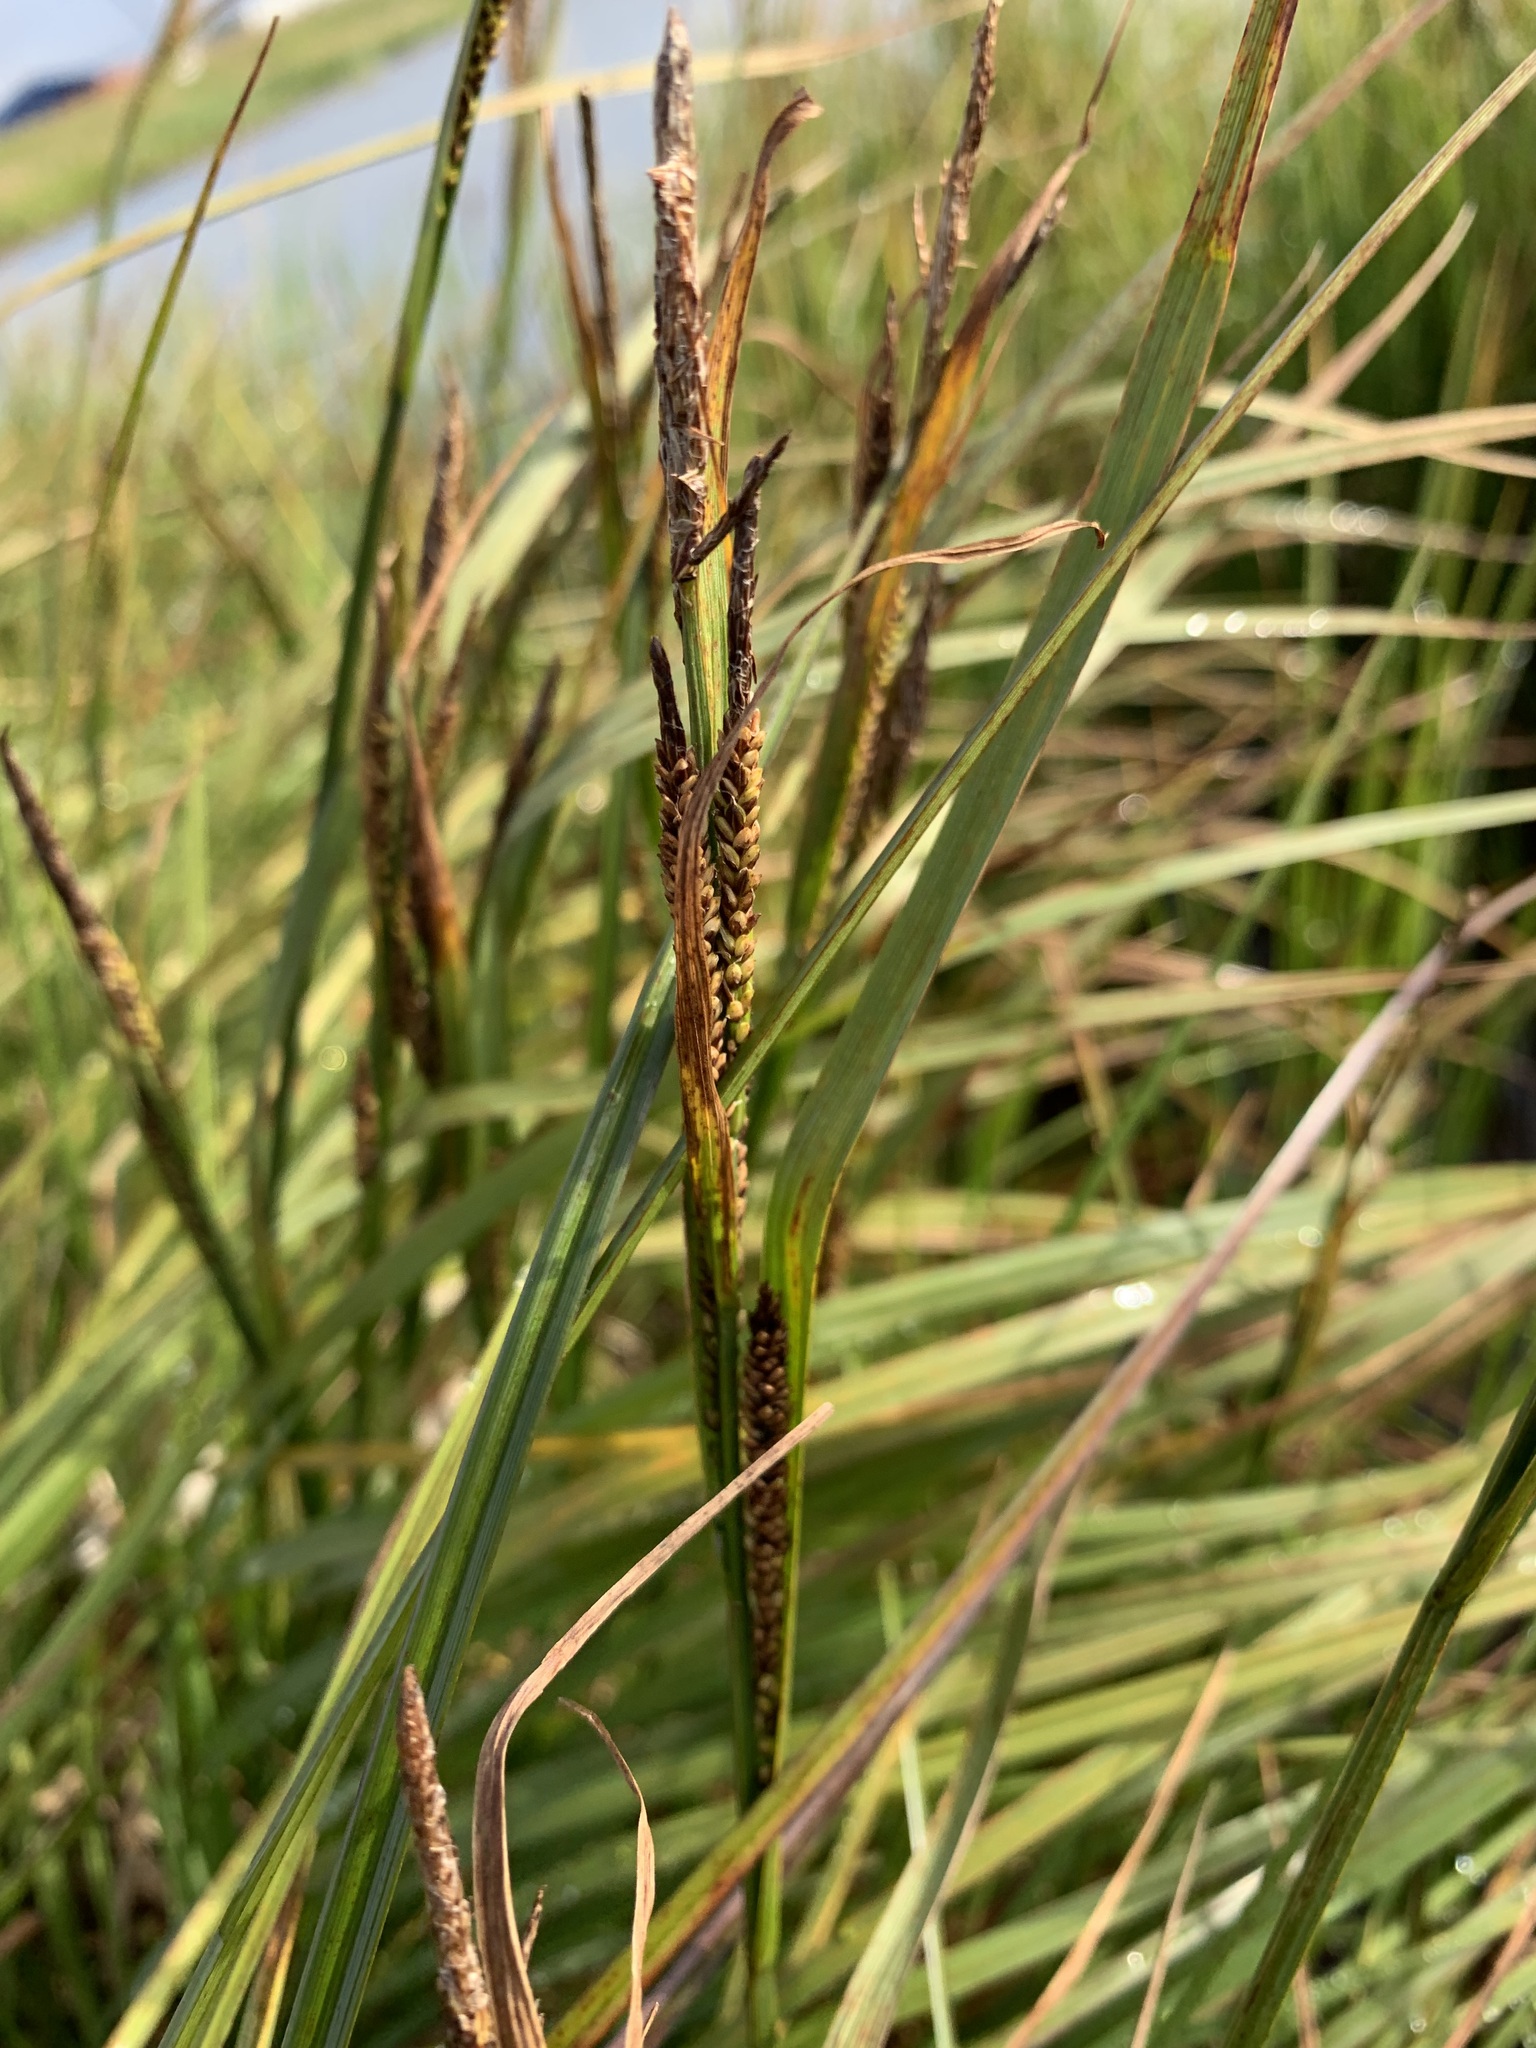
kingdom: Plantae
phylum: Tracheophyta
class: Liliopsida
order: Poales
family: Cyperaceae
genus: Carex
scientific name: Carex aquatilis
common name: Water sedge
